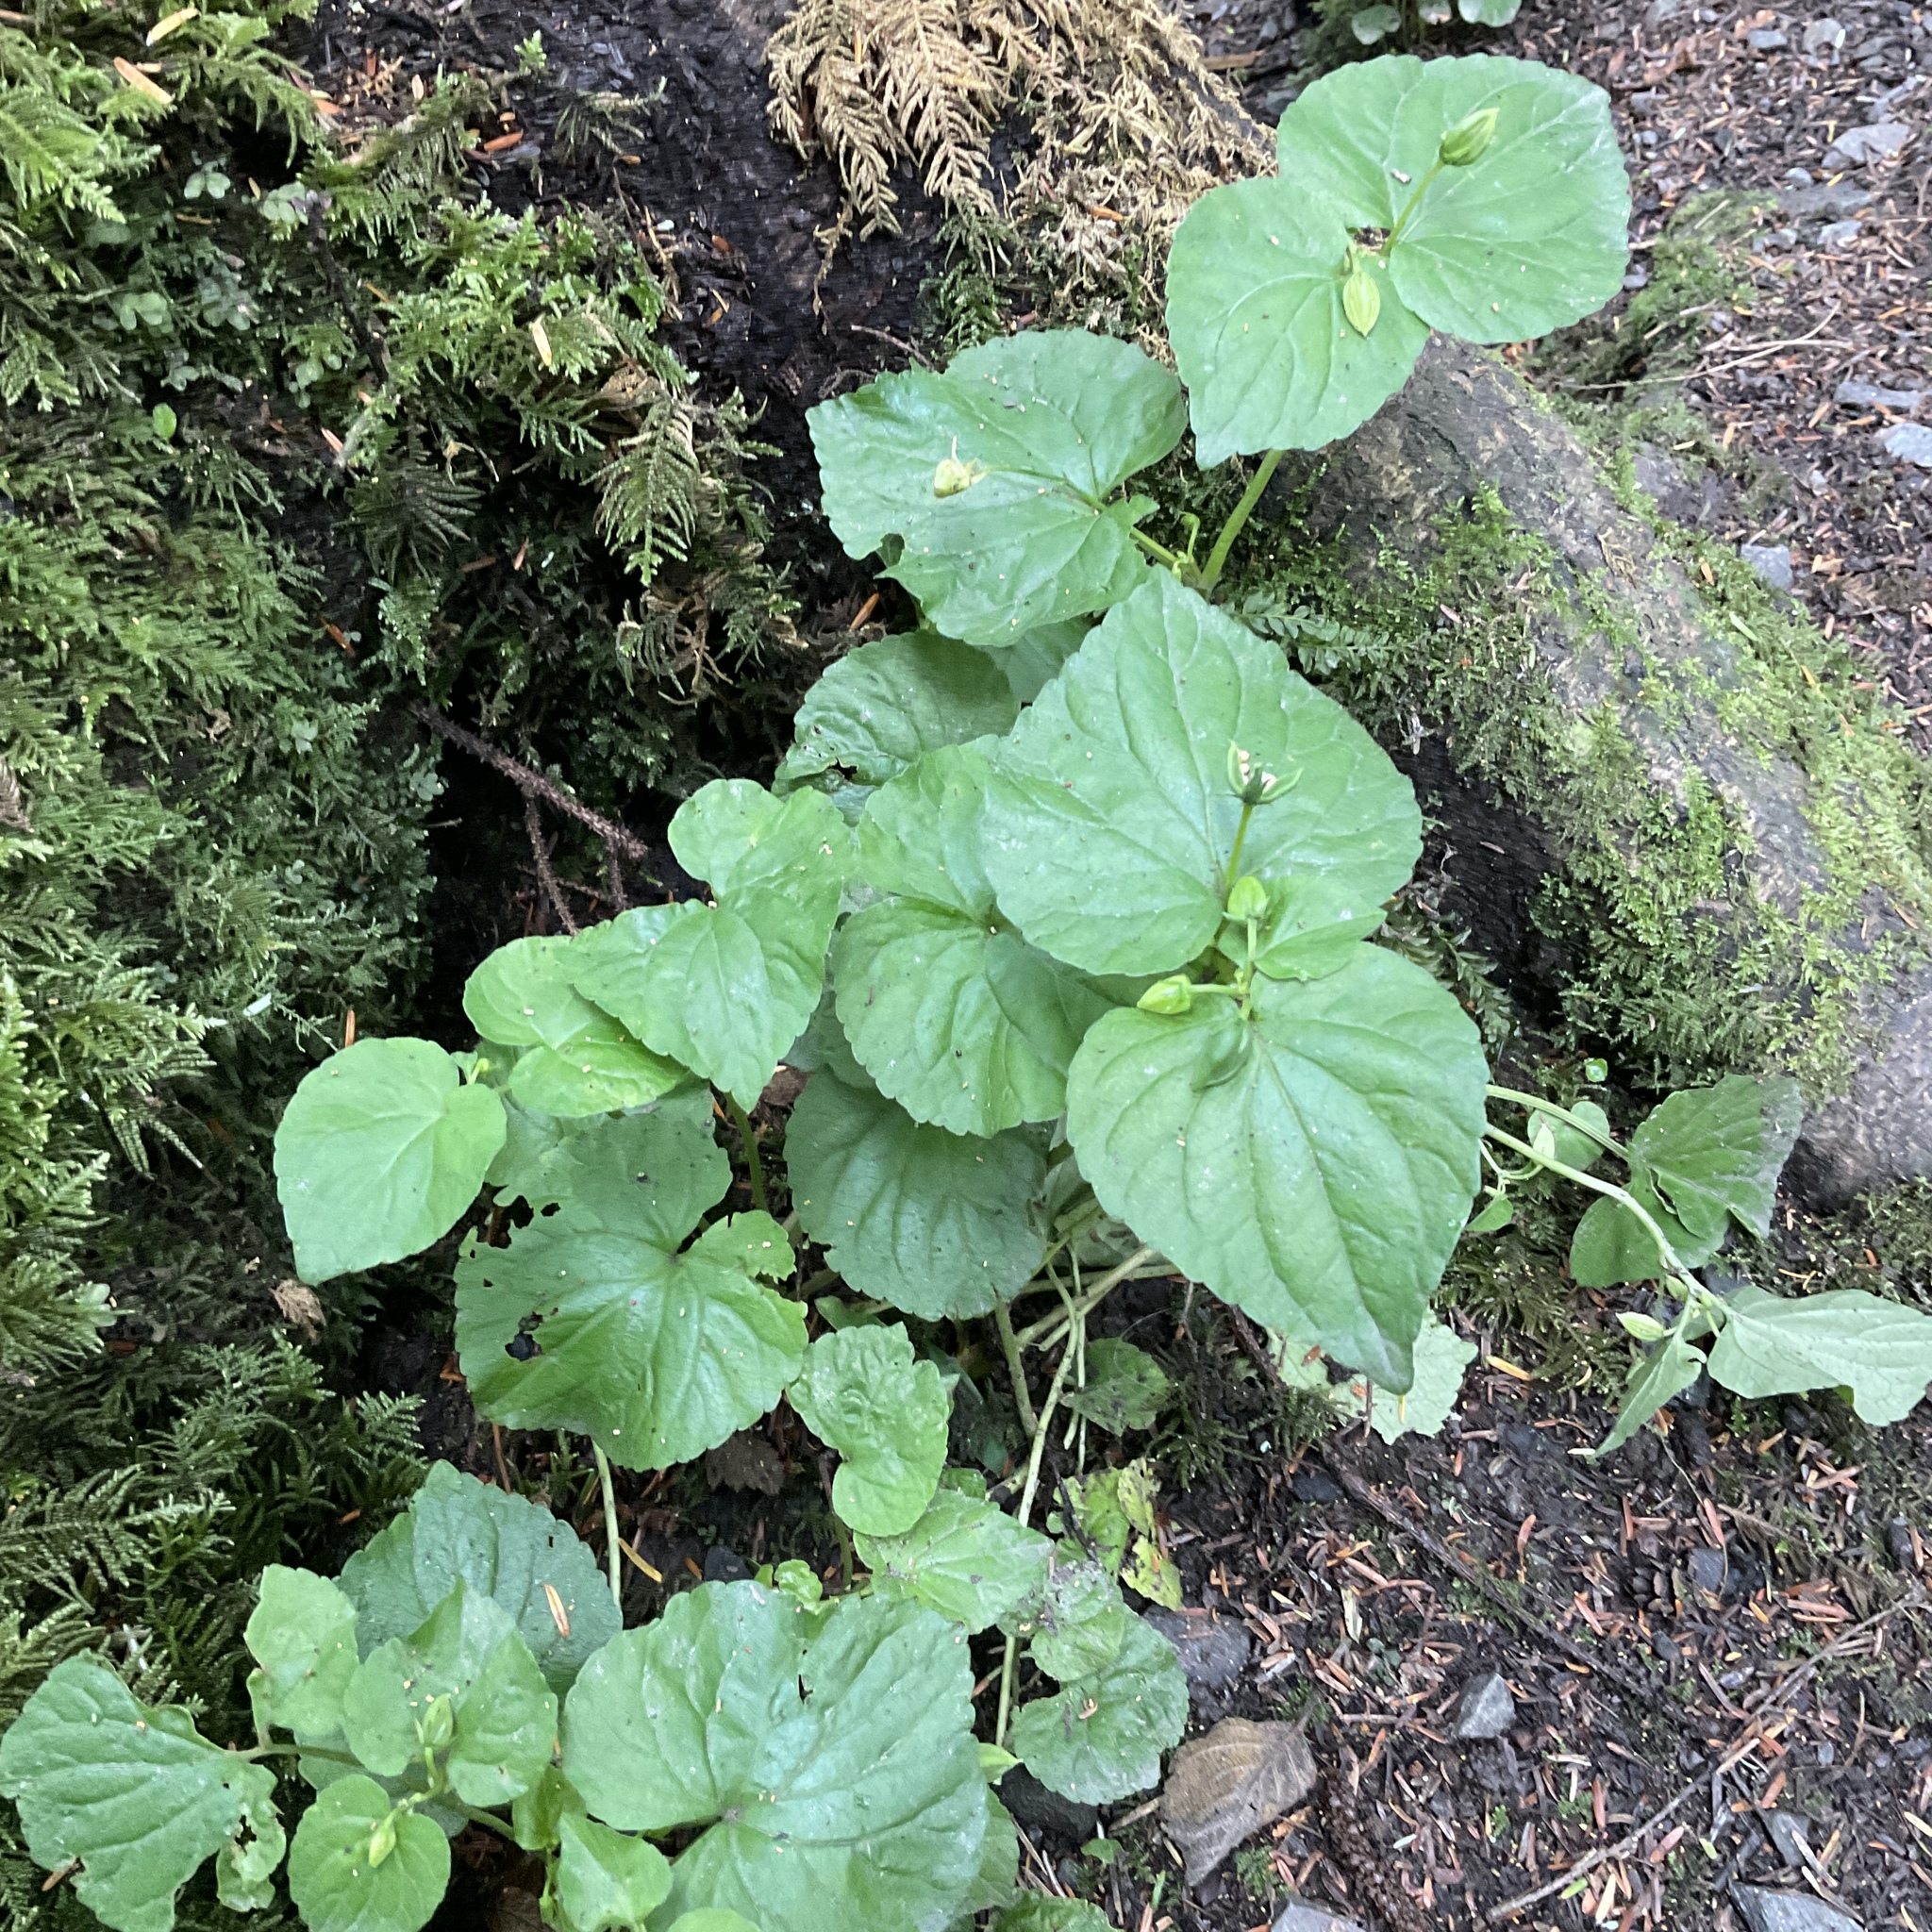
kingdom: Plantae
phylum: Tracheophyta
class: Magnoliopsida
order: Malpighiales
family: Violaceae
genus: Viola
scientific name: Viola glabella
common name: Stream violet
